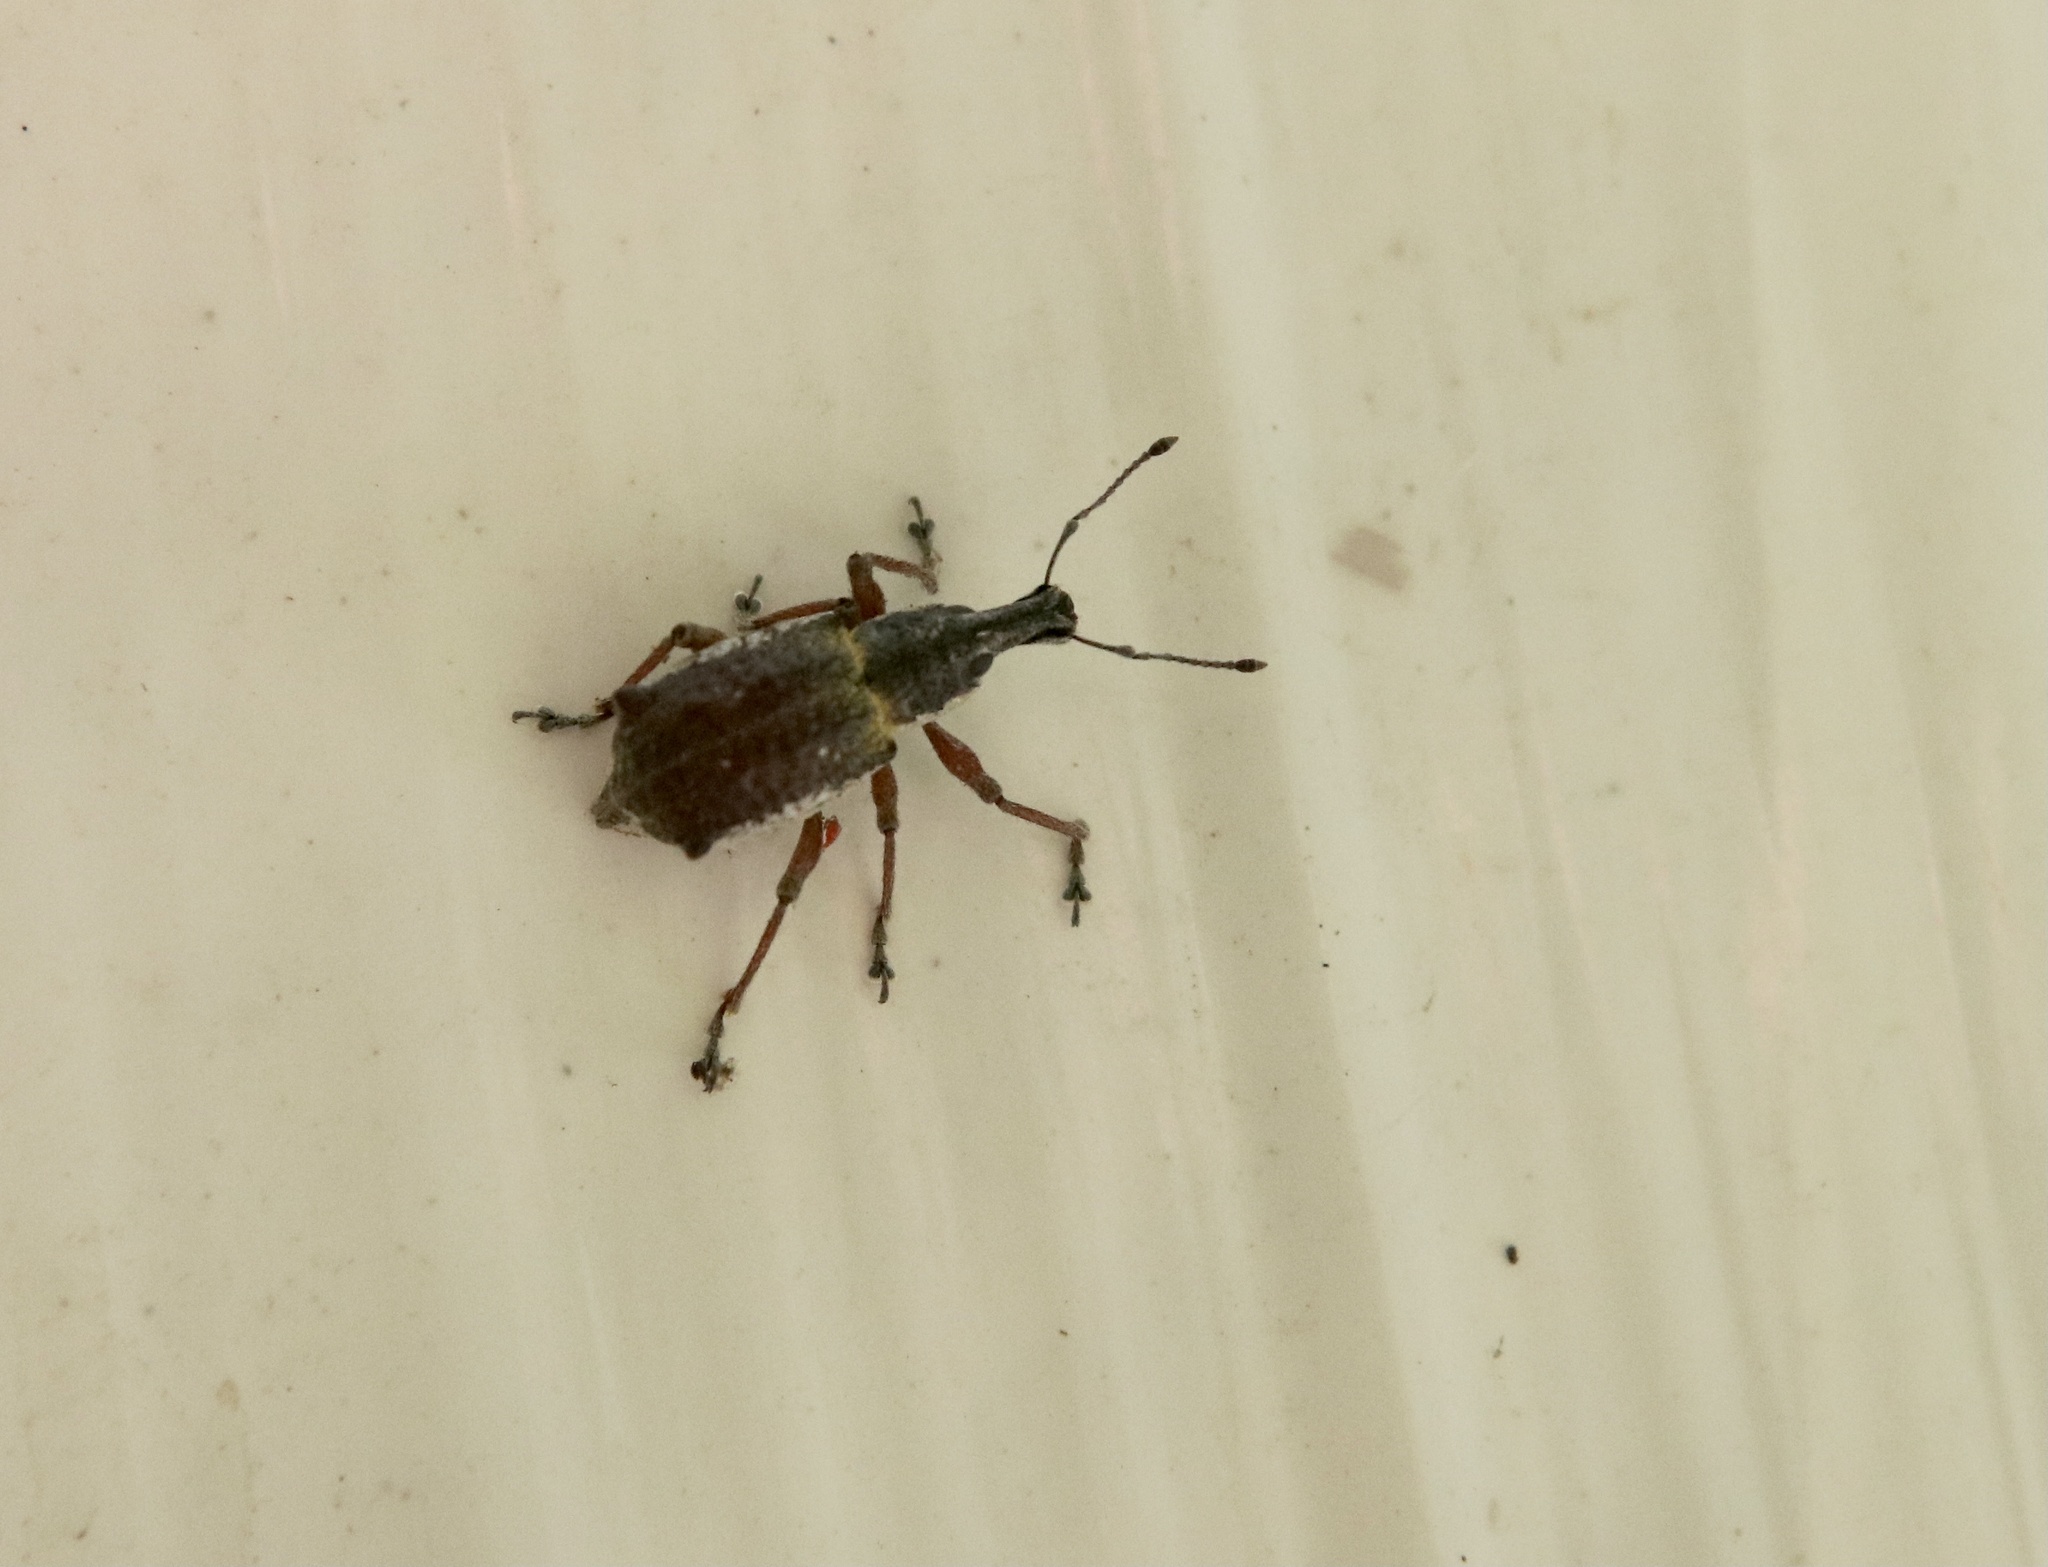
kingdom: Animalia
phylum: Arthropoda
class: Insecta
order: Coleoptera
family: Curculionidae
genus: Hybreoleptops
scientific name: Hybreoleptops tuberculifer
